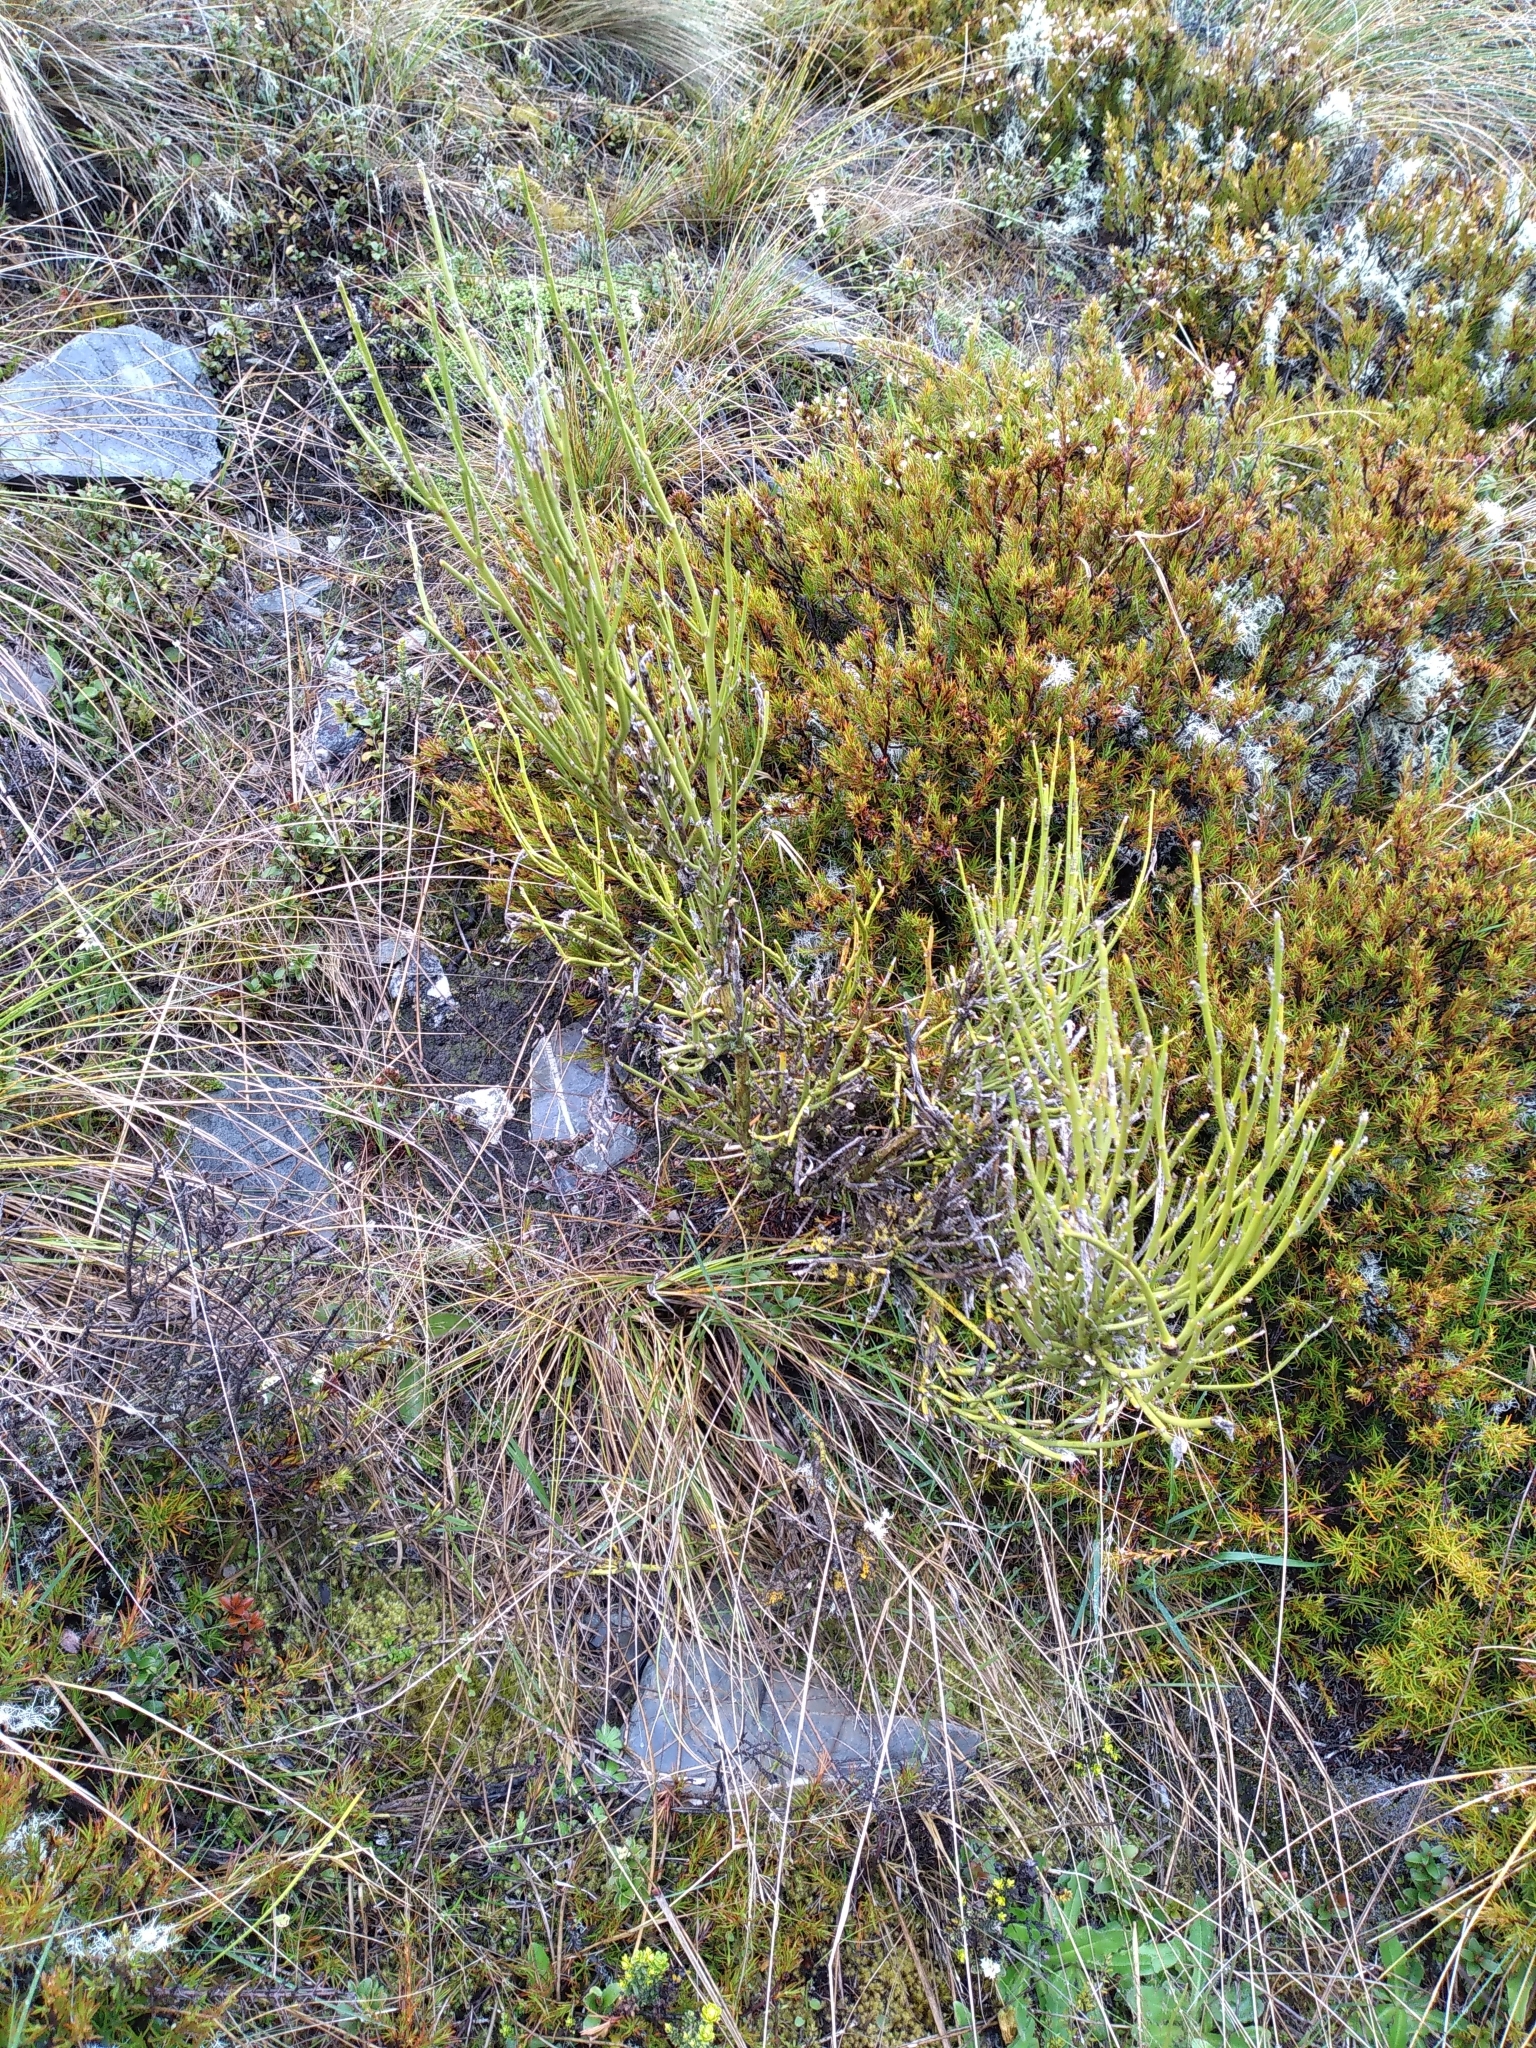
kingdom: Plantae
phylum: Tracheophyta
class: Magnoliopsida
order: Fabales
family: Fabaceae
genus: Carmichaelia
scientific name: Carmichaelia petriei
